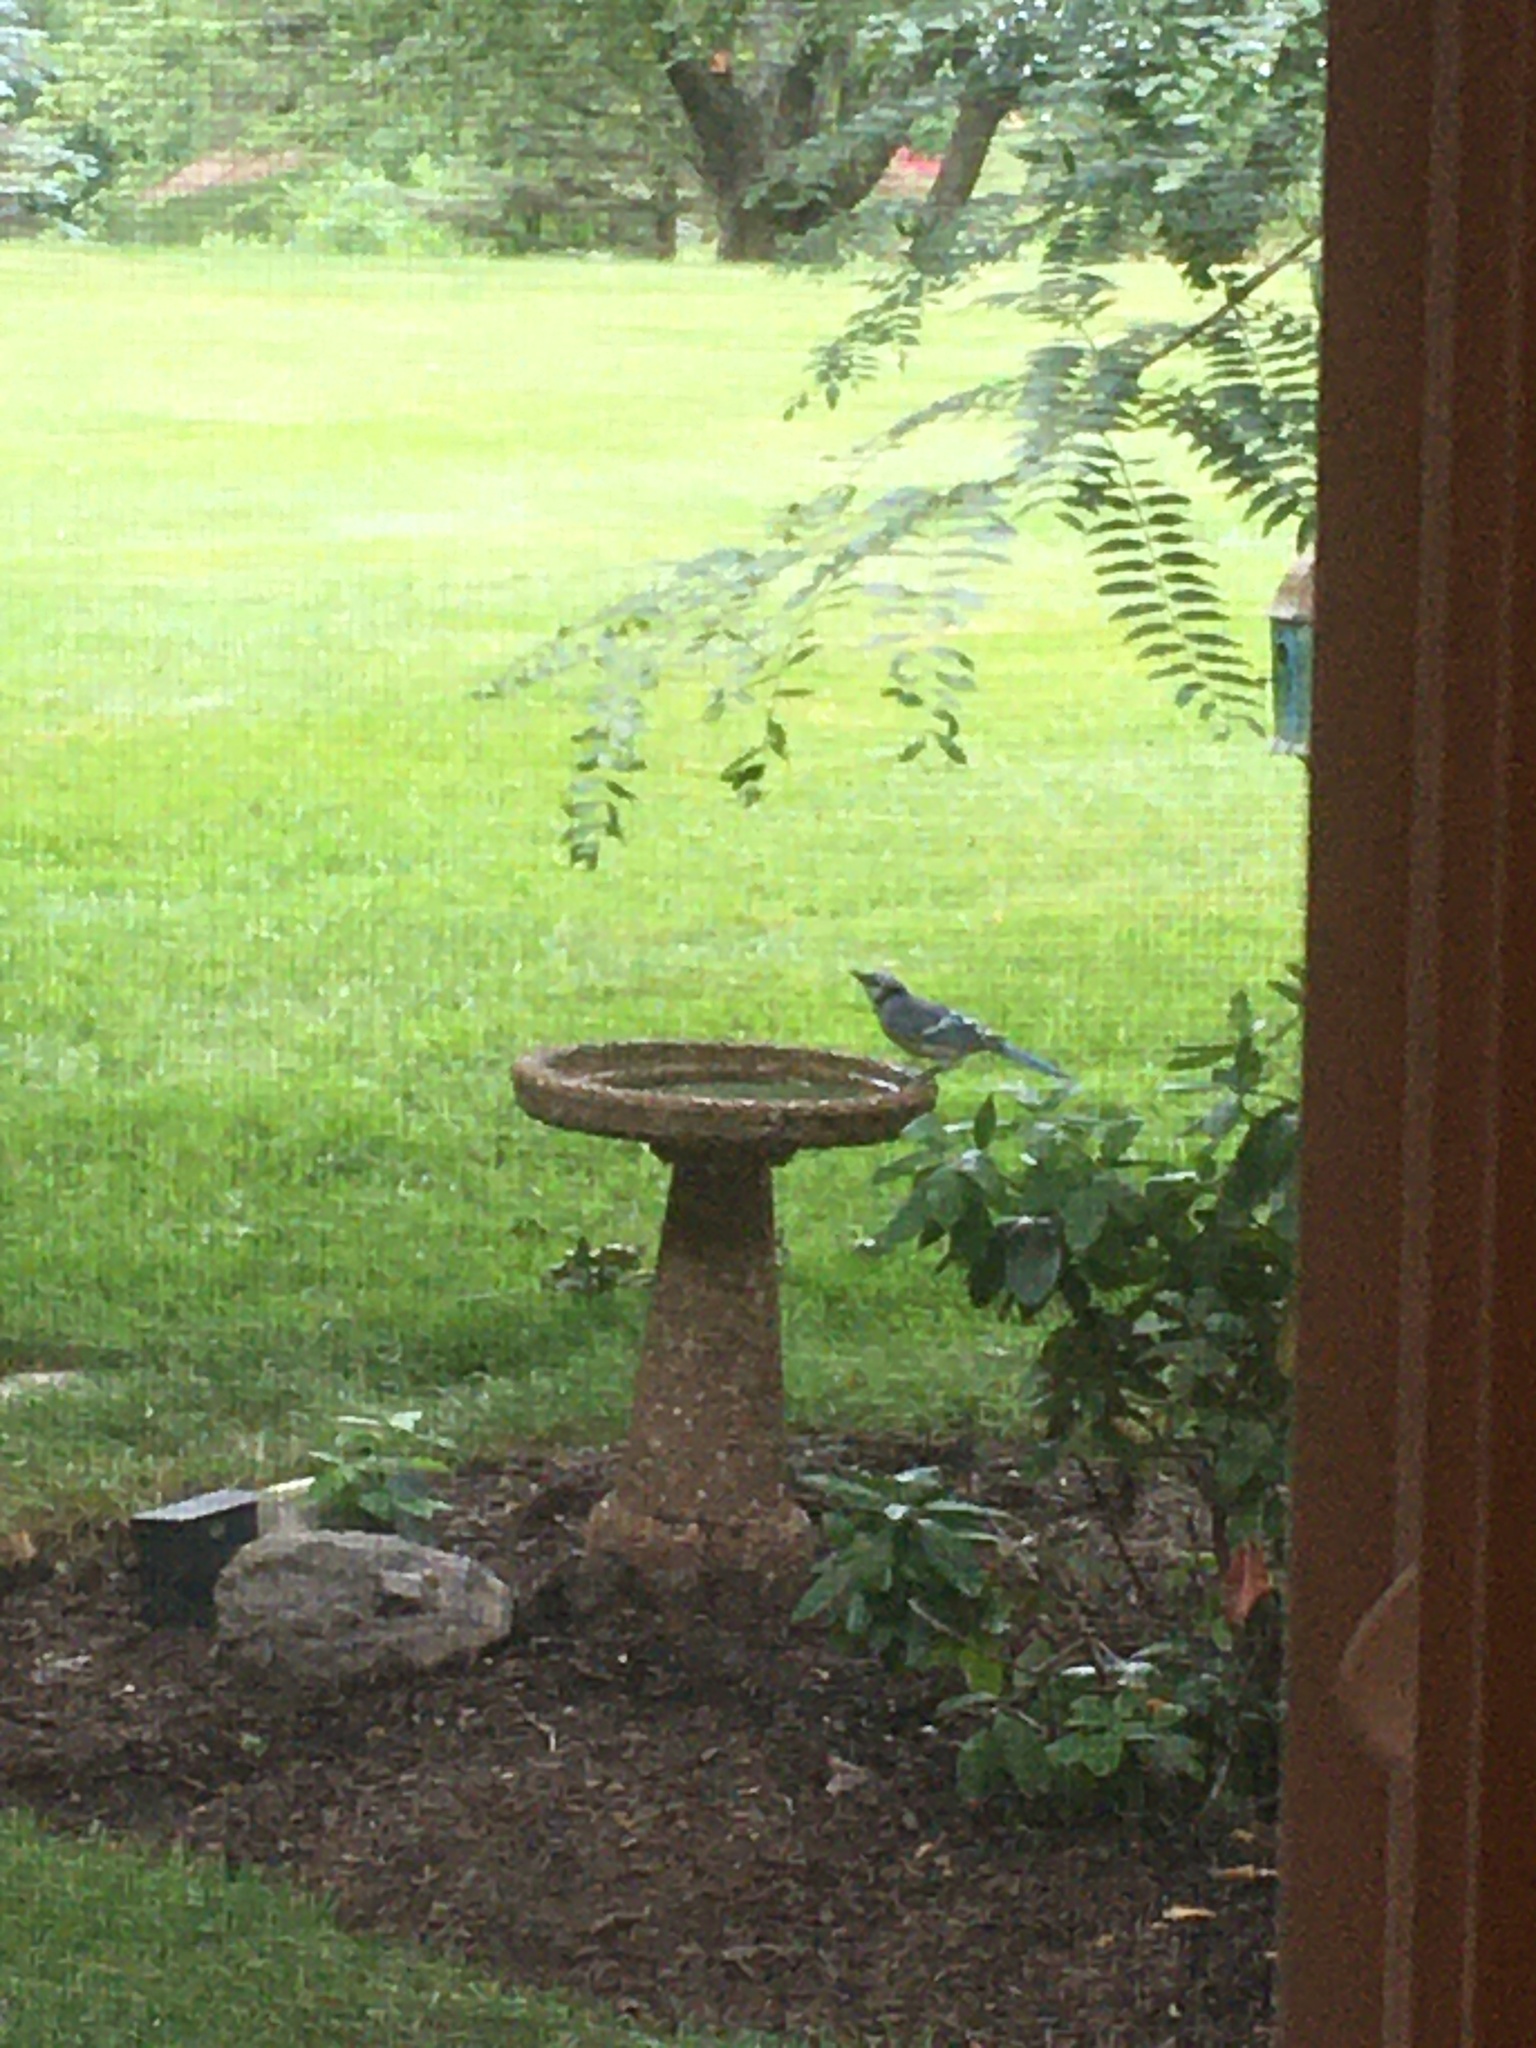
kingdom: Animalia
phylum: Chordata
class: Aves
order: Passeriformes
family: Corvidae
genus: Cyanocitta
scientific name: Cyanocitta cristata
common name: Blue jay
